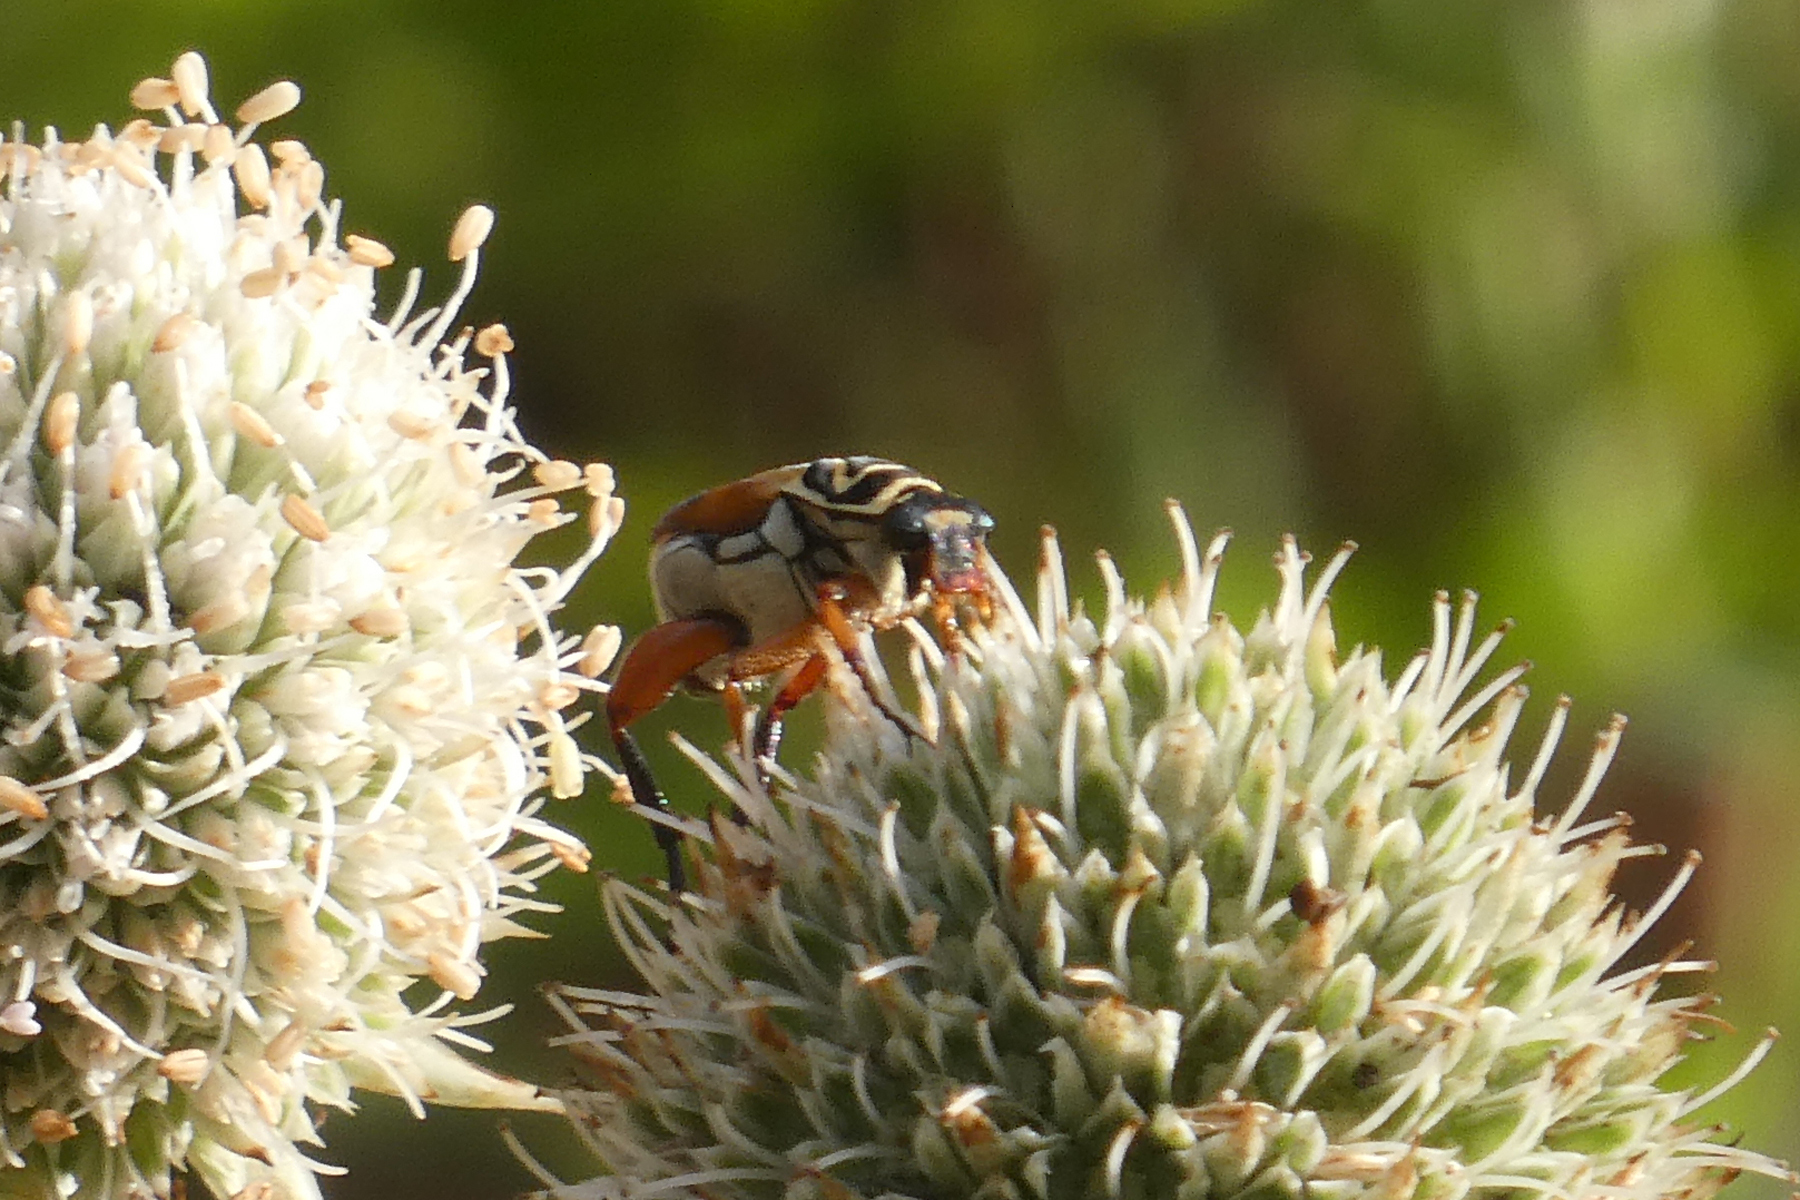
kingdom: Animalia
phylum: Arthropoda
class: Insecta
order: Coleoptera
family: Scarabaeidae
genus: Trigonopeltastes
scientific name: Trigonopeltastes delta
